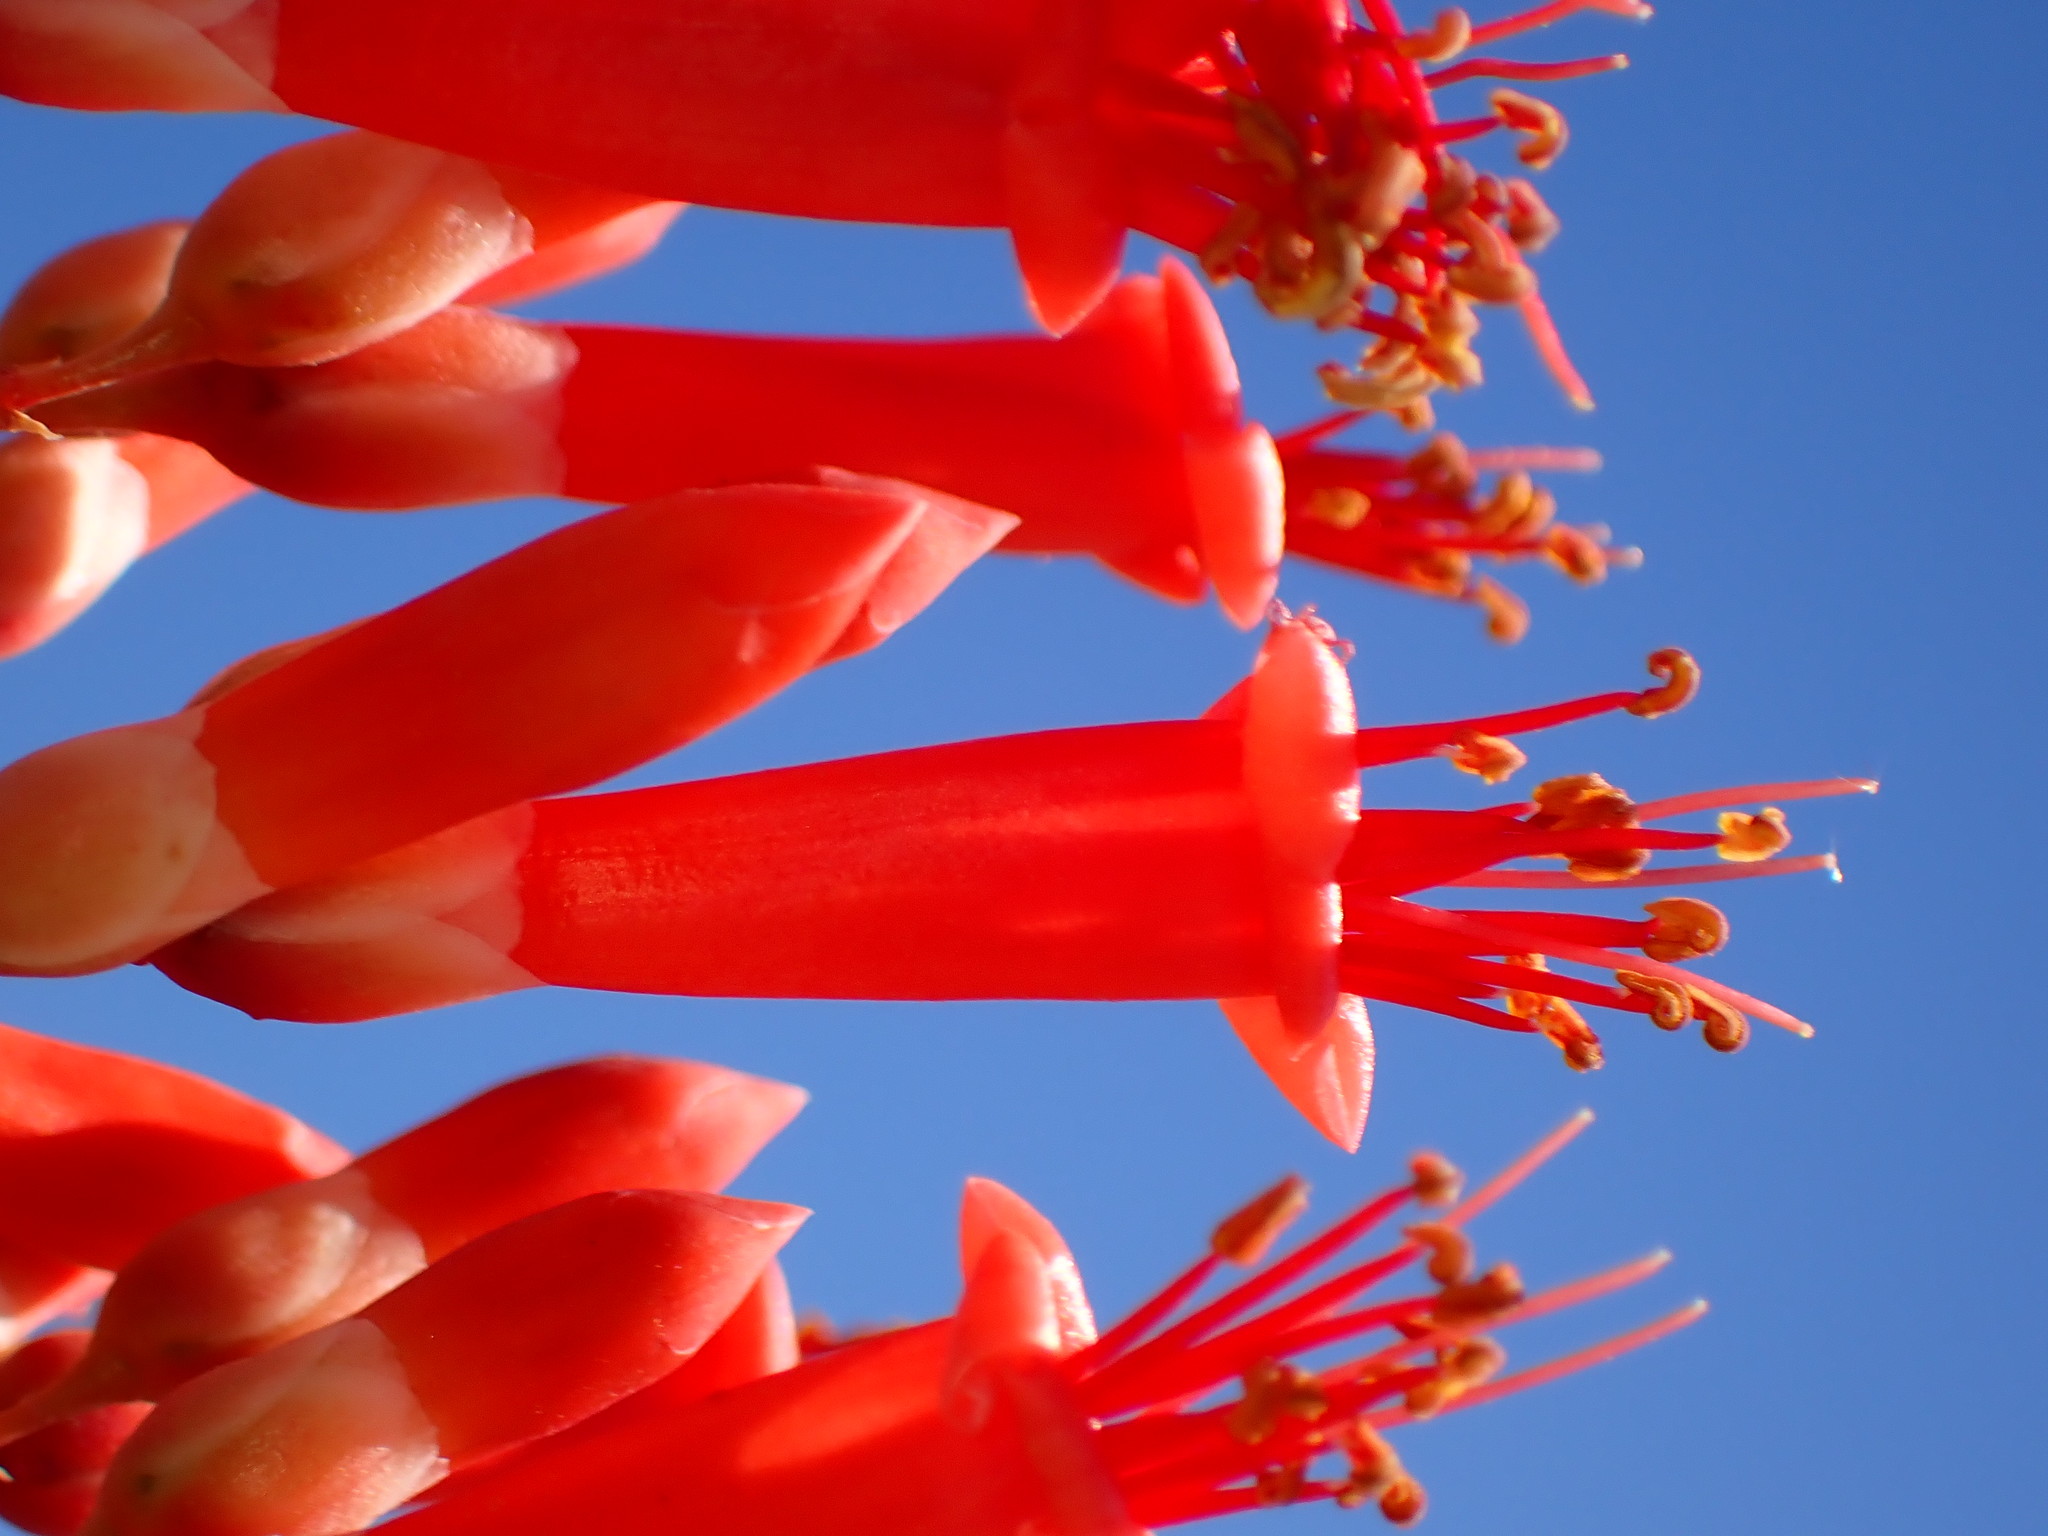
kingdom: Plantae
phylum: Tracheophyta
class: Magnoliopsida
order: Ericales
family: Fouquieriaceae
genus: Fouquieria
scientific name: Fouquieria splendens
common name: Vine-cactus
